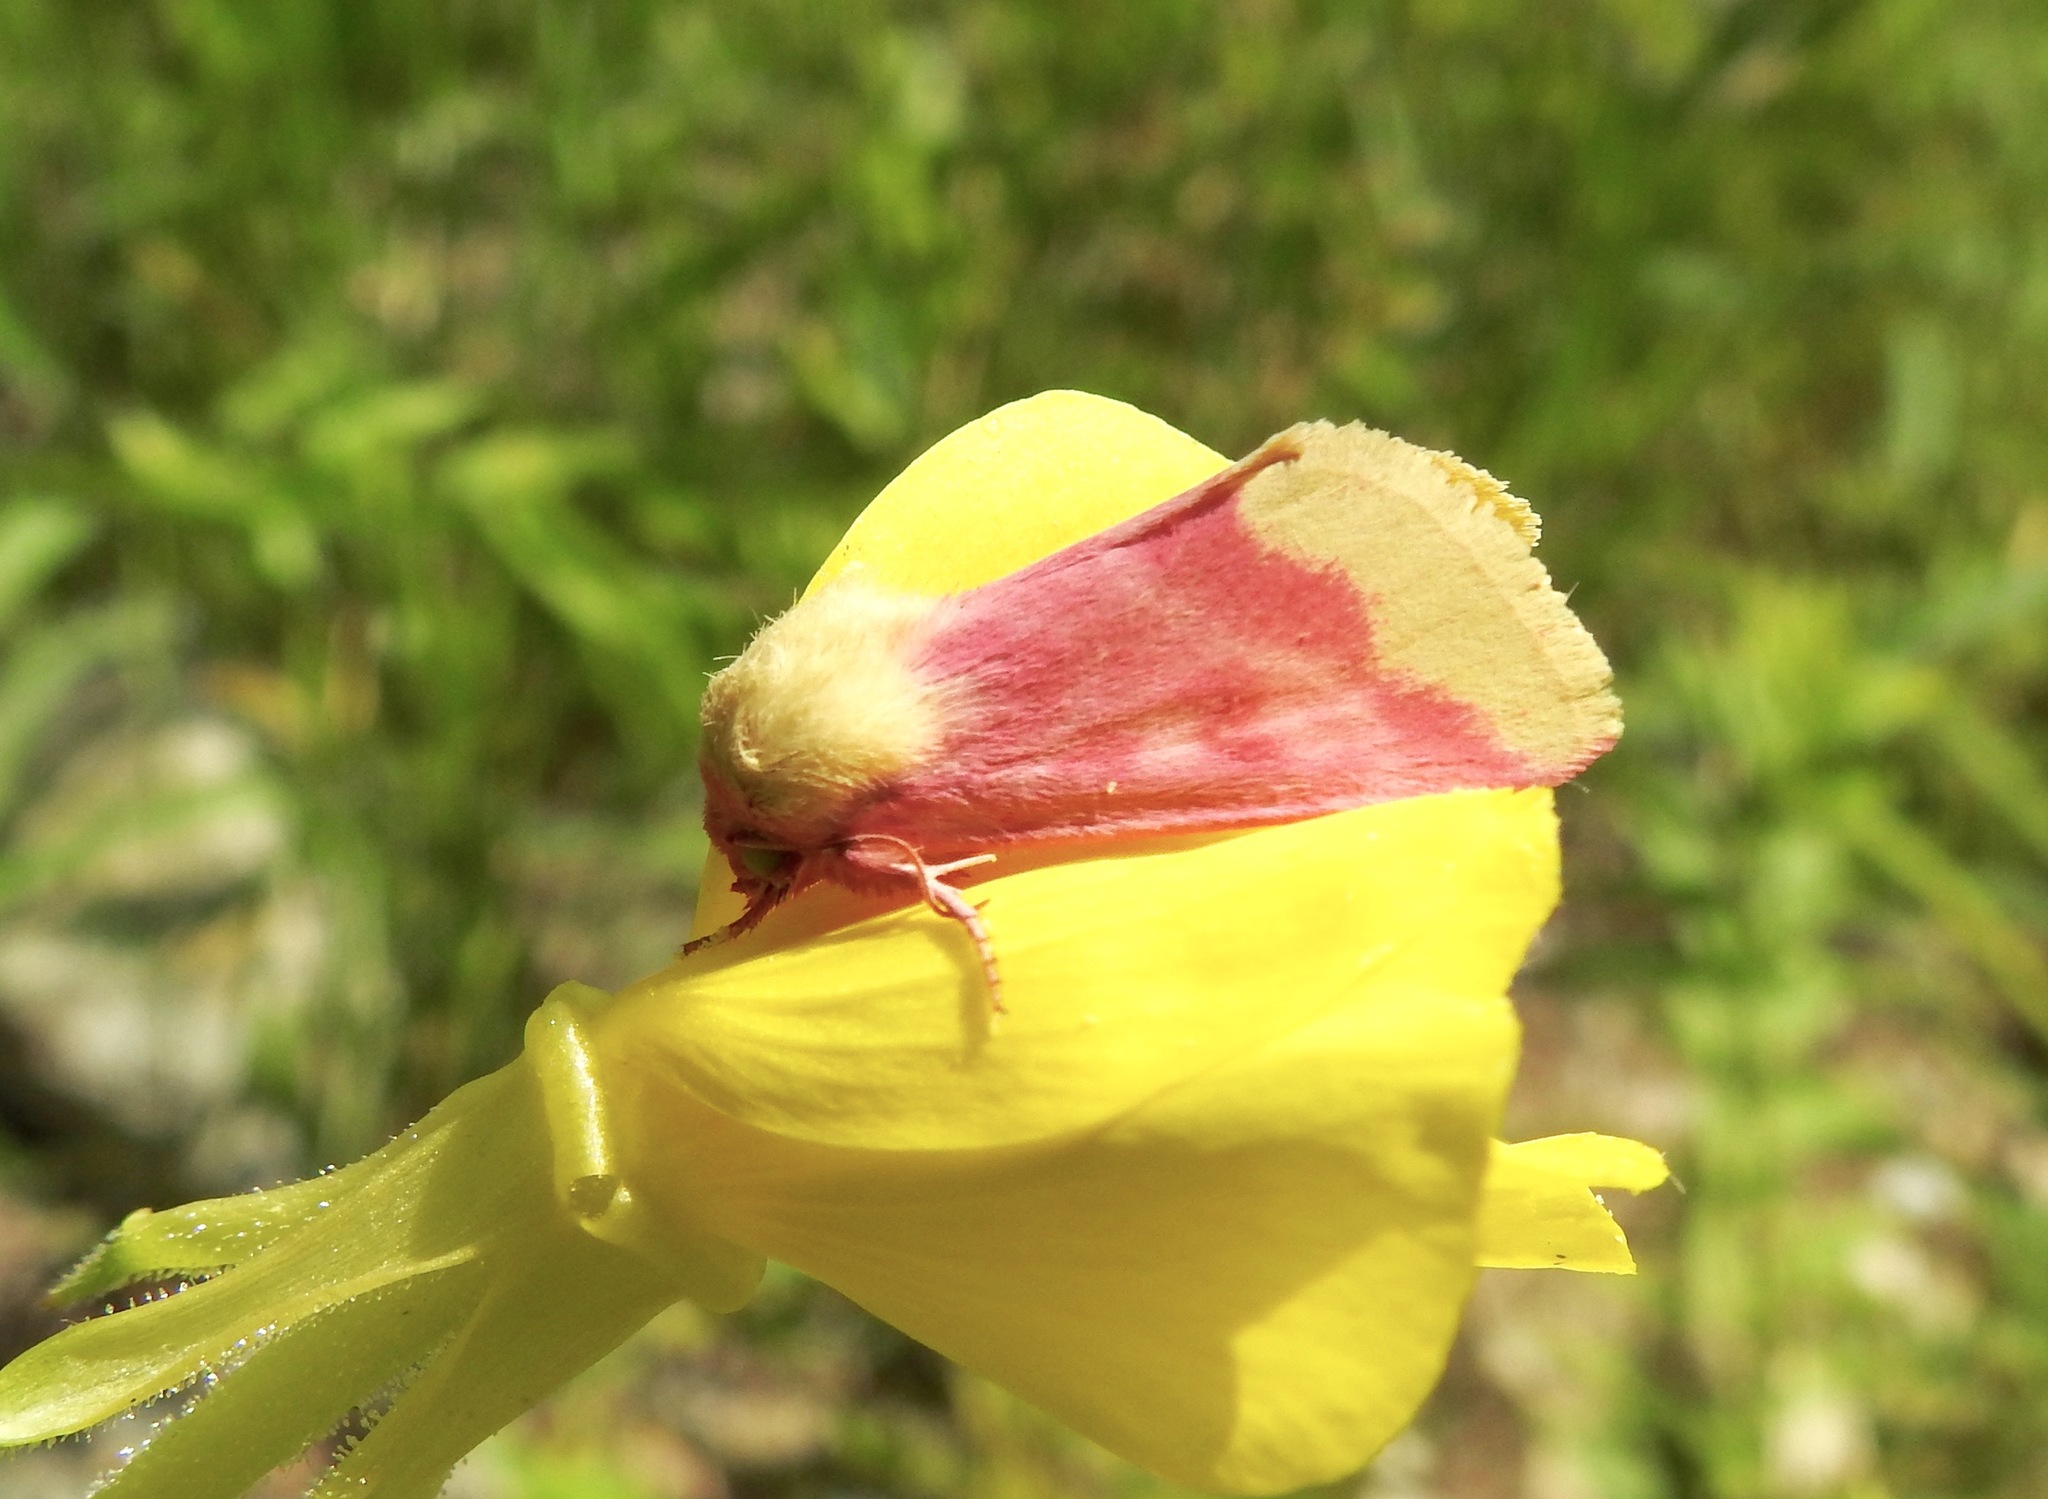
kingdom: Animalia
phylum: Arthropoda
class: Insecta
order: Lepidoptera
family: Noctuidae
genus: Schinia
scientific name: Schinia florida
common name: Primrose moth
